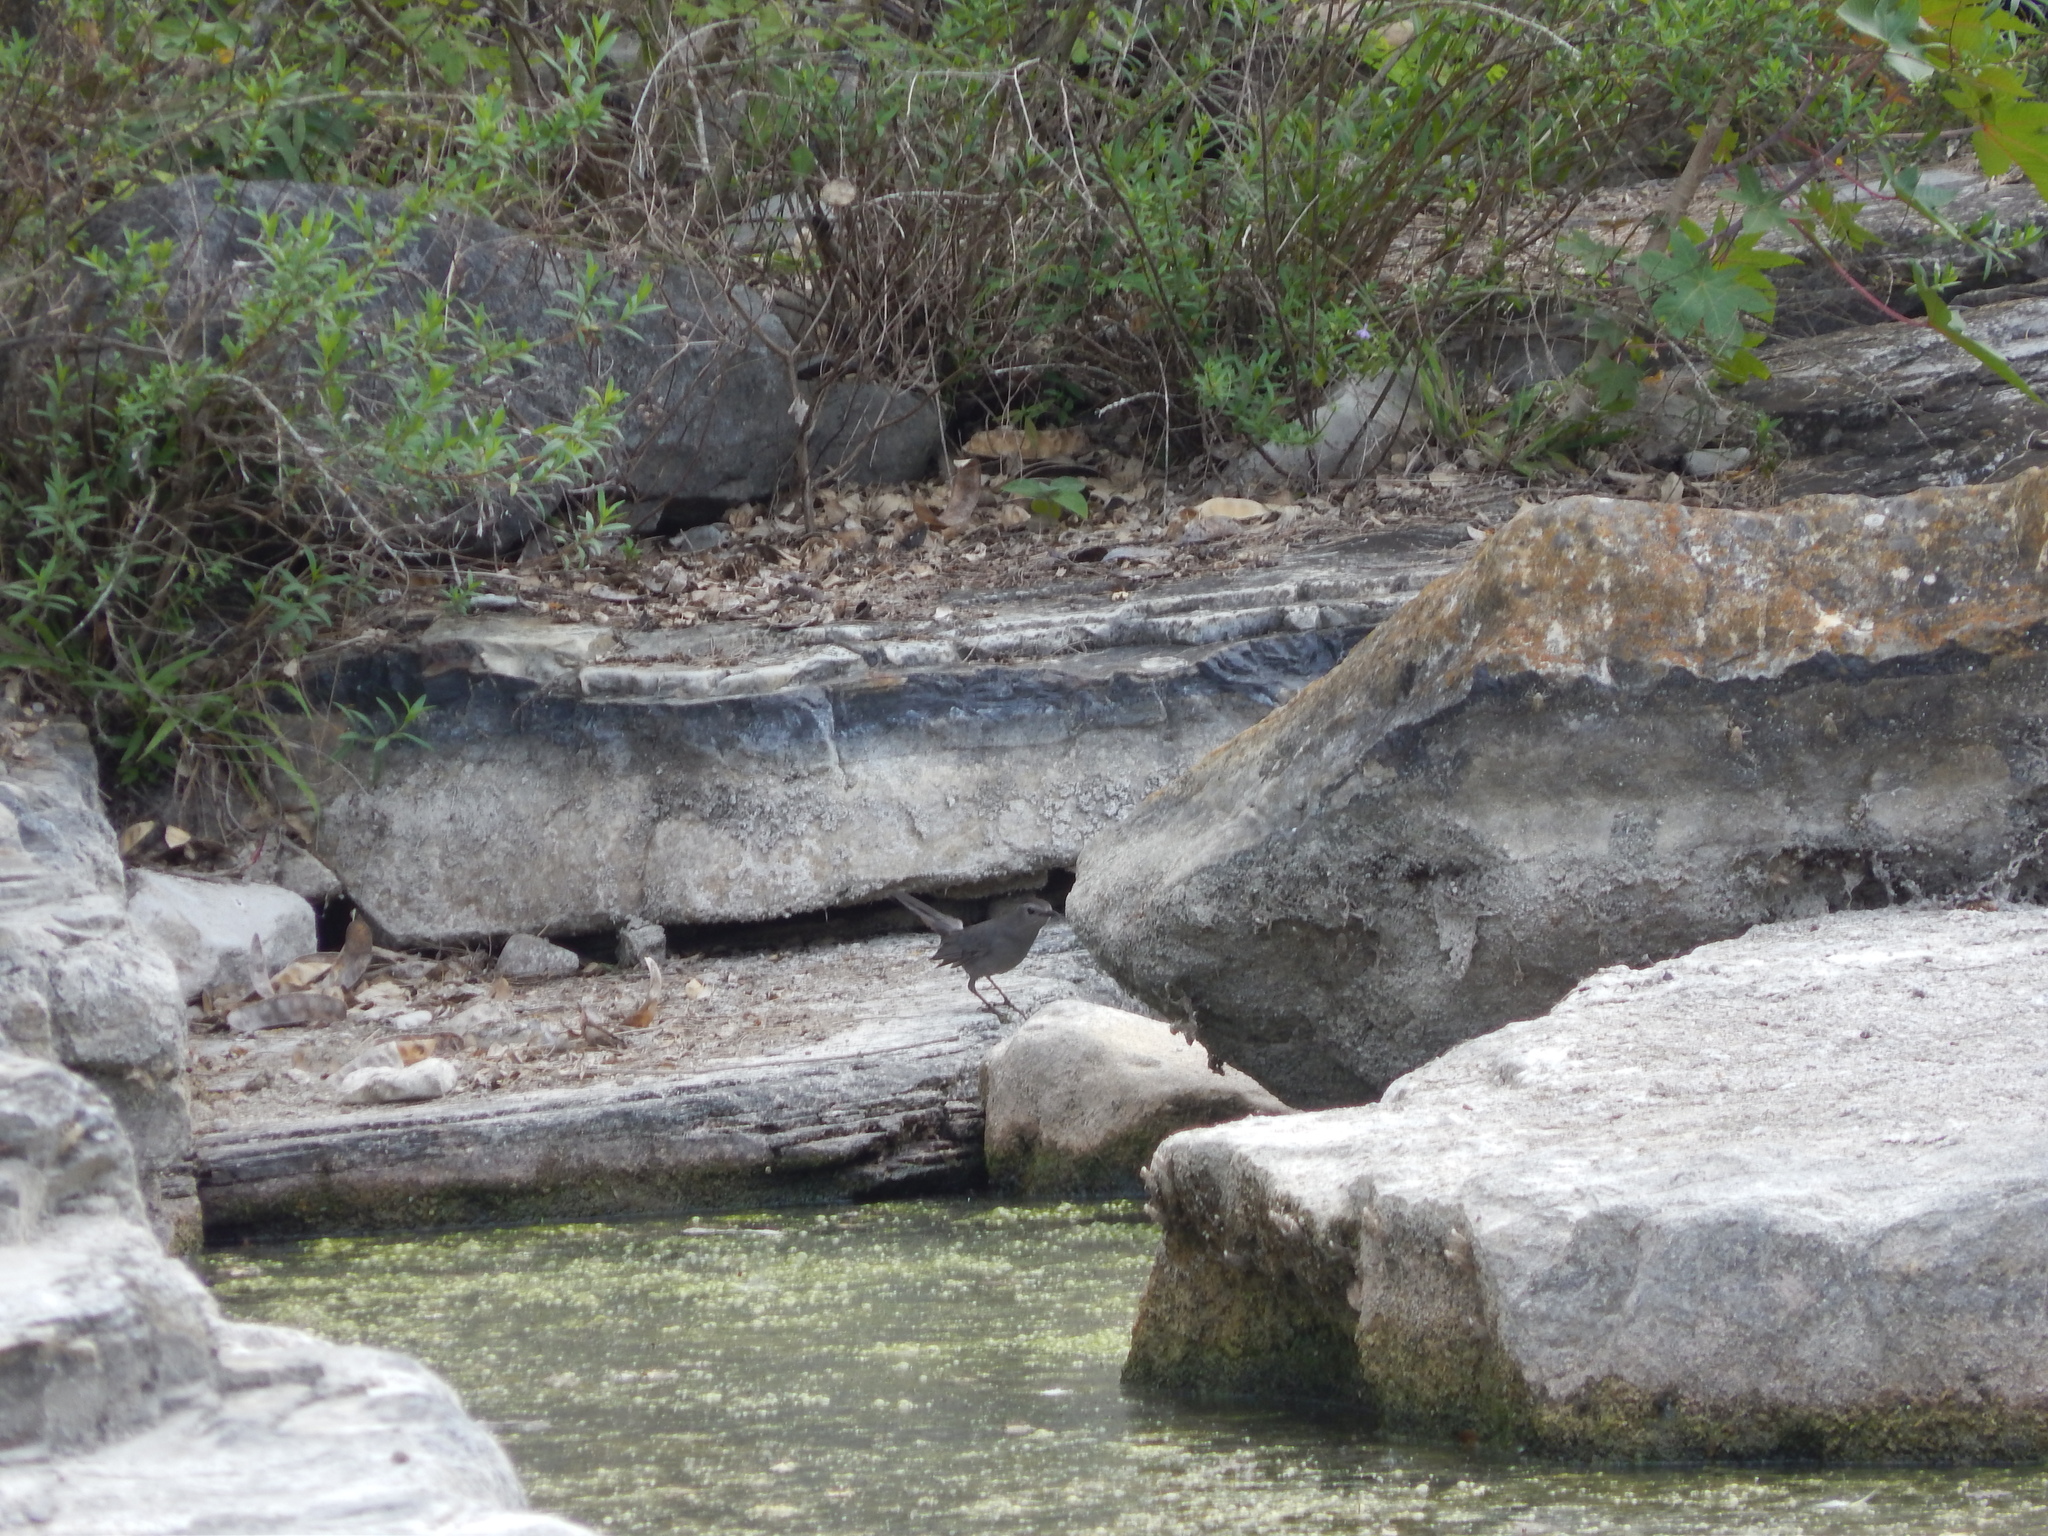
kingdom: Animalia
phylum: Chordata
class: Aves
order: Passeriformes
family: Mimidae
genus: Dumetella
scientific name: Dumetella carolinensis
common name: Gray catbird
